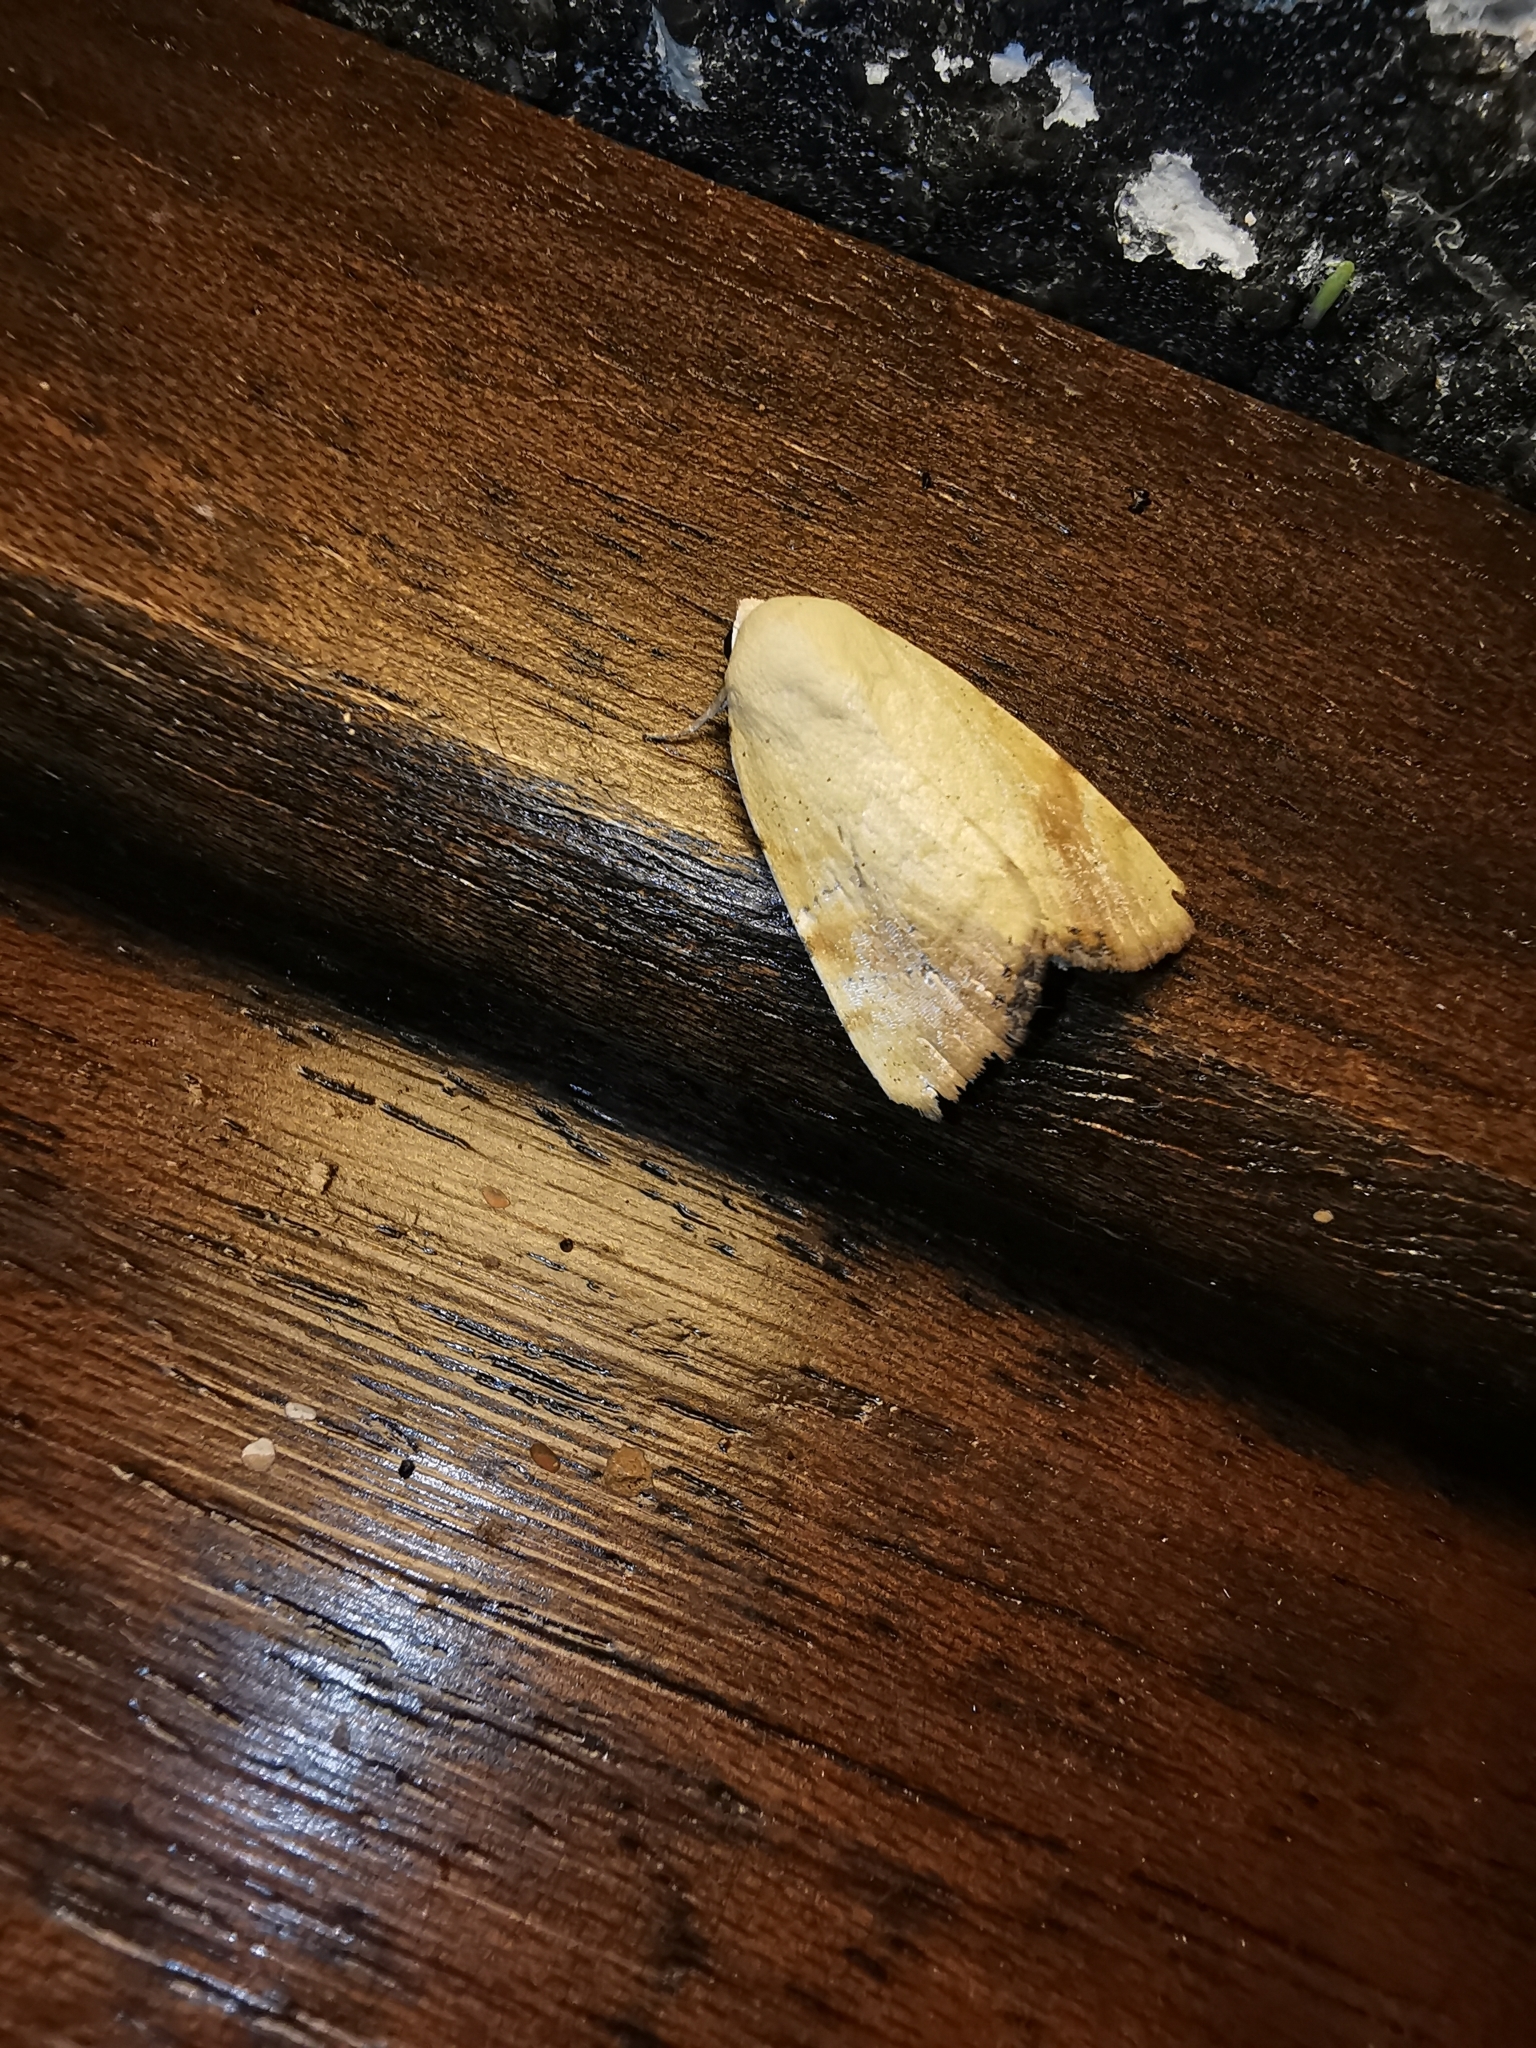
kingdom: Animalia
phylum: Arthropoda
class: Insecta
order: Lepidoptera
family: Nolidae
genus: Xanthodes
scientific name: Xanthodes albago
